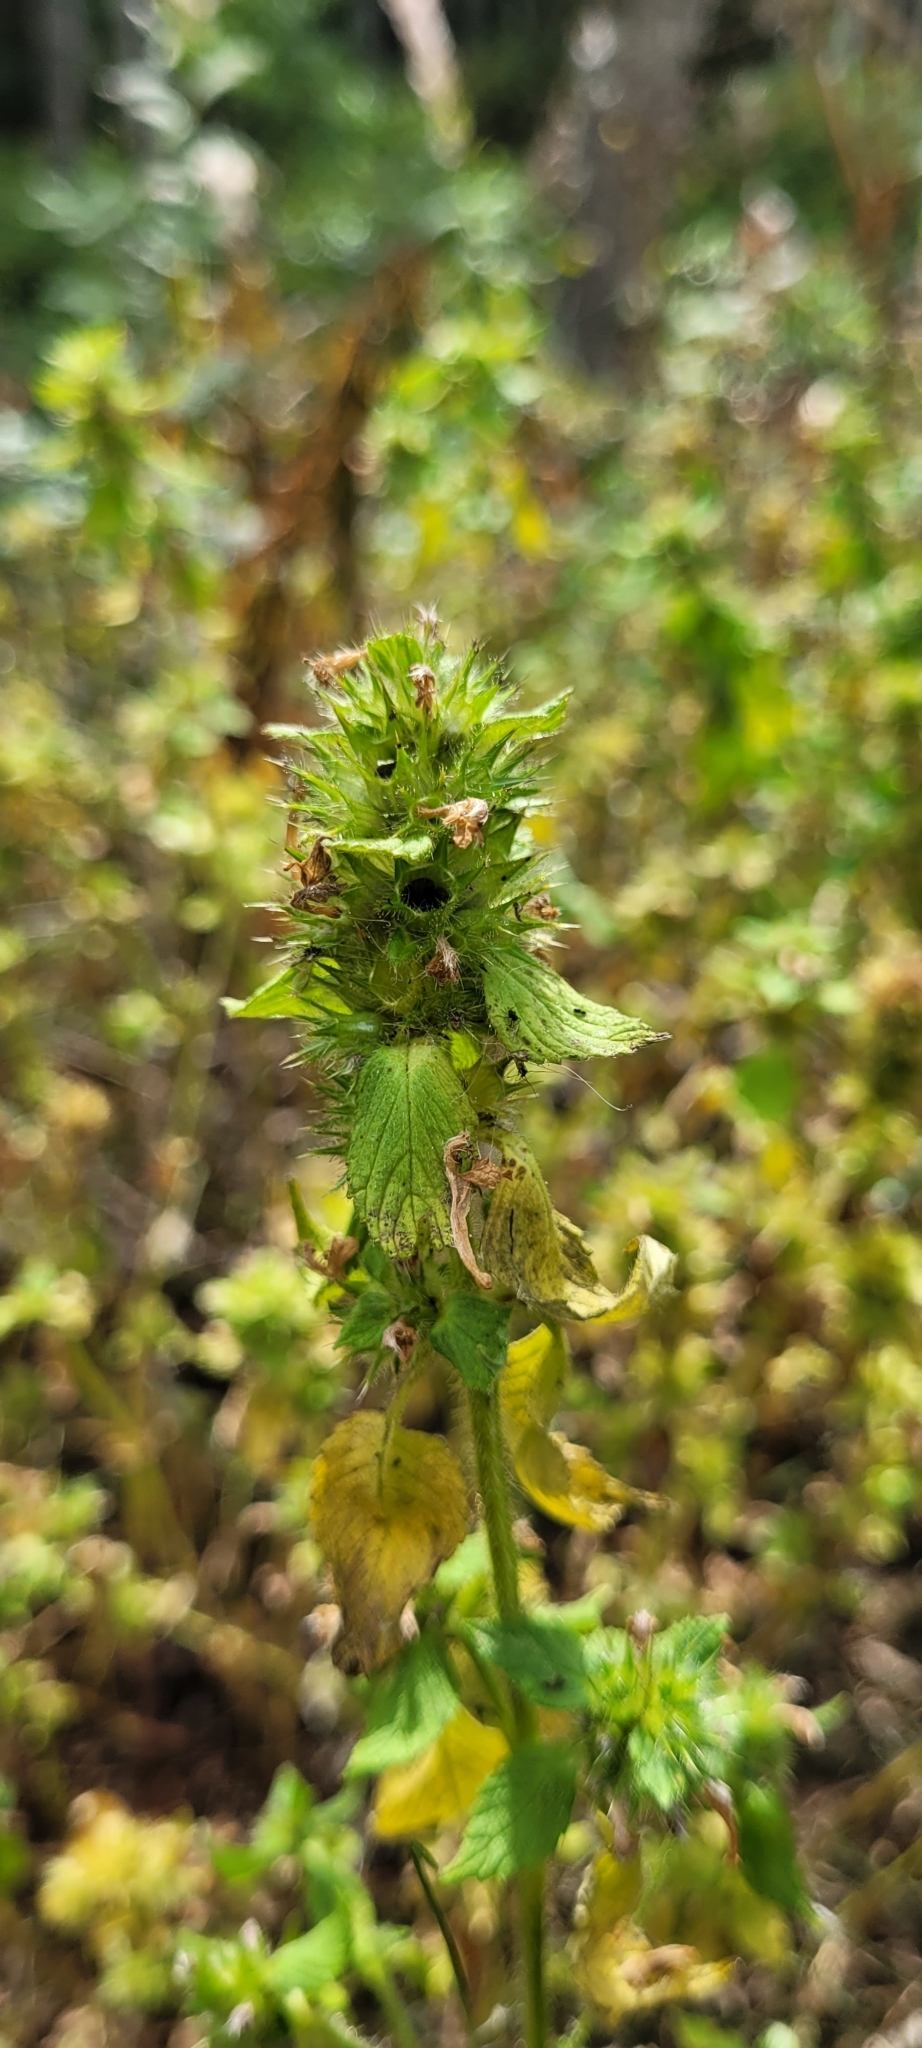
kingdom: Plantae
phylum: Tracheophyta
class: Magnoliopsida
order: Lamiales
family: Lamiaceae
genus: Galeopsis
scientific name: Galeopsis bifida
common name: Bifid hemp-nettle
